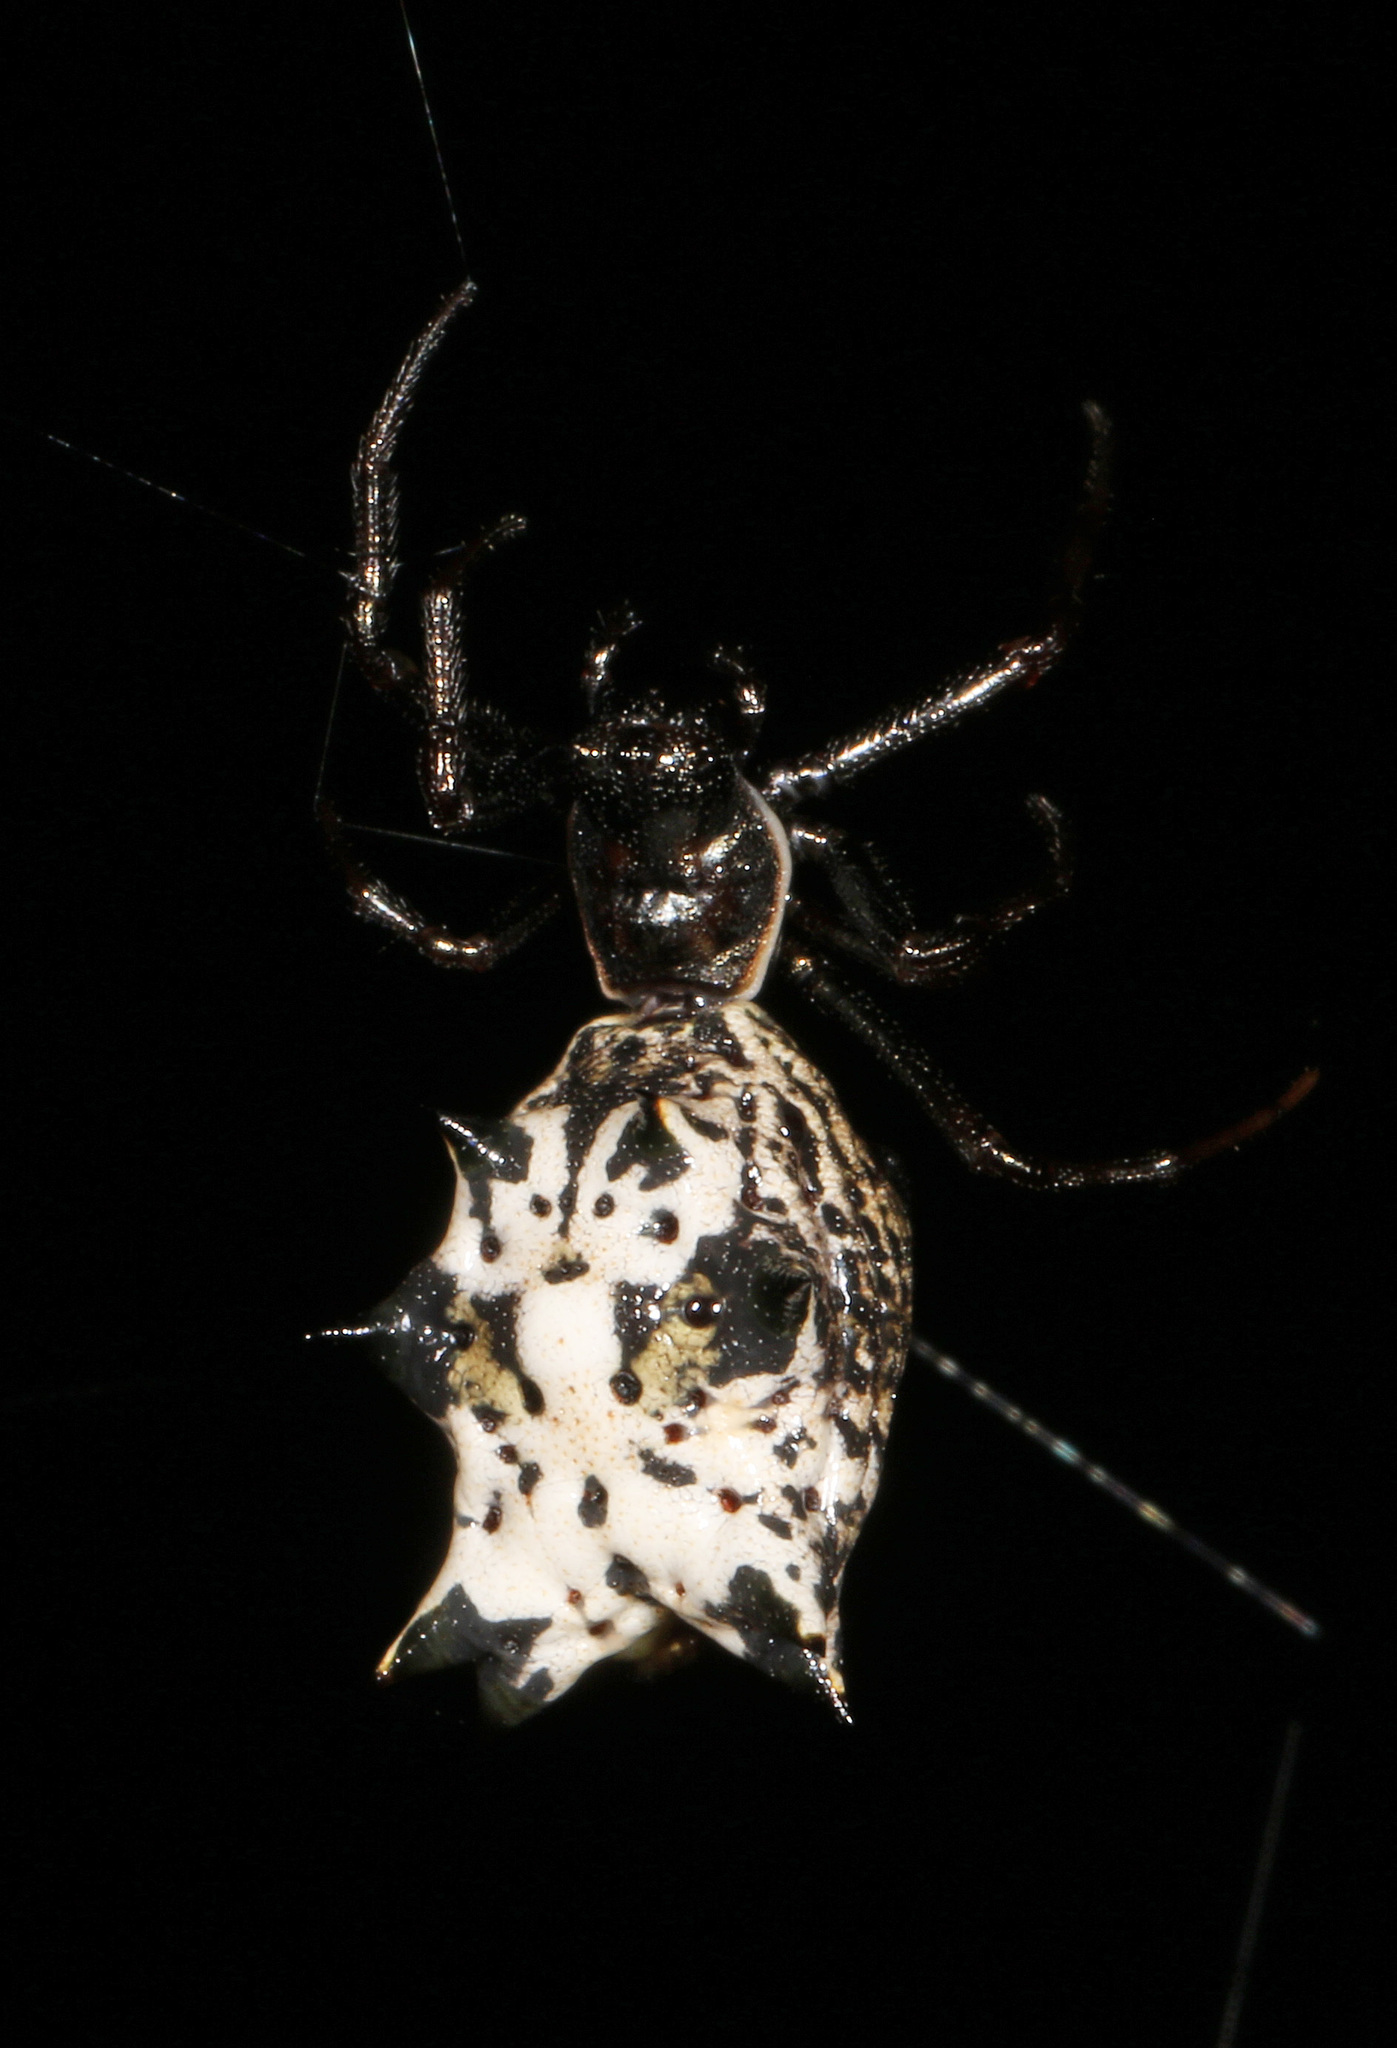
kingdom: Animalia
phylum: Arthropoda
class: Arachnida
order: Araneae
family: Araneidae
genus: Micrathena
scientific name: Micrathena gracilis
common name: Orb weavers
